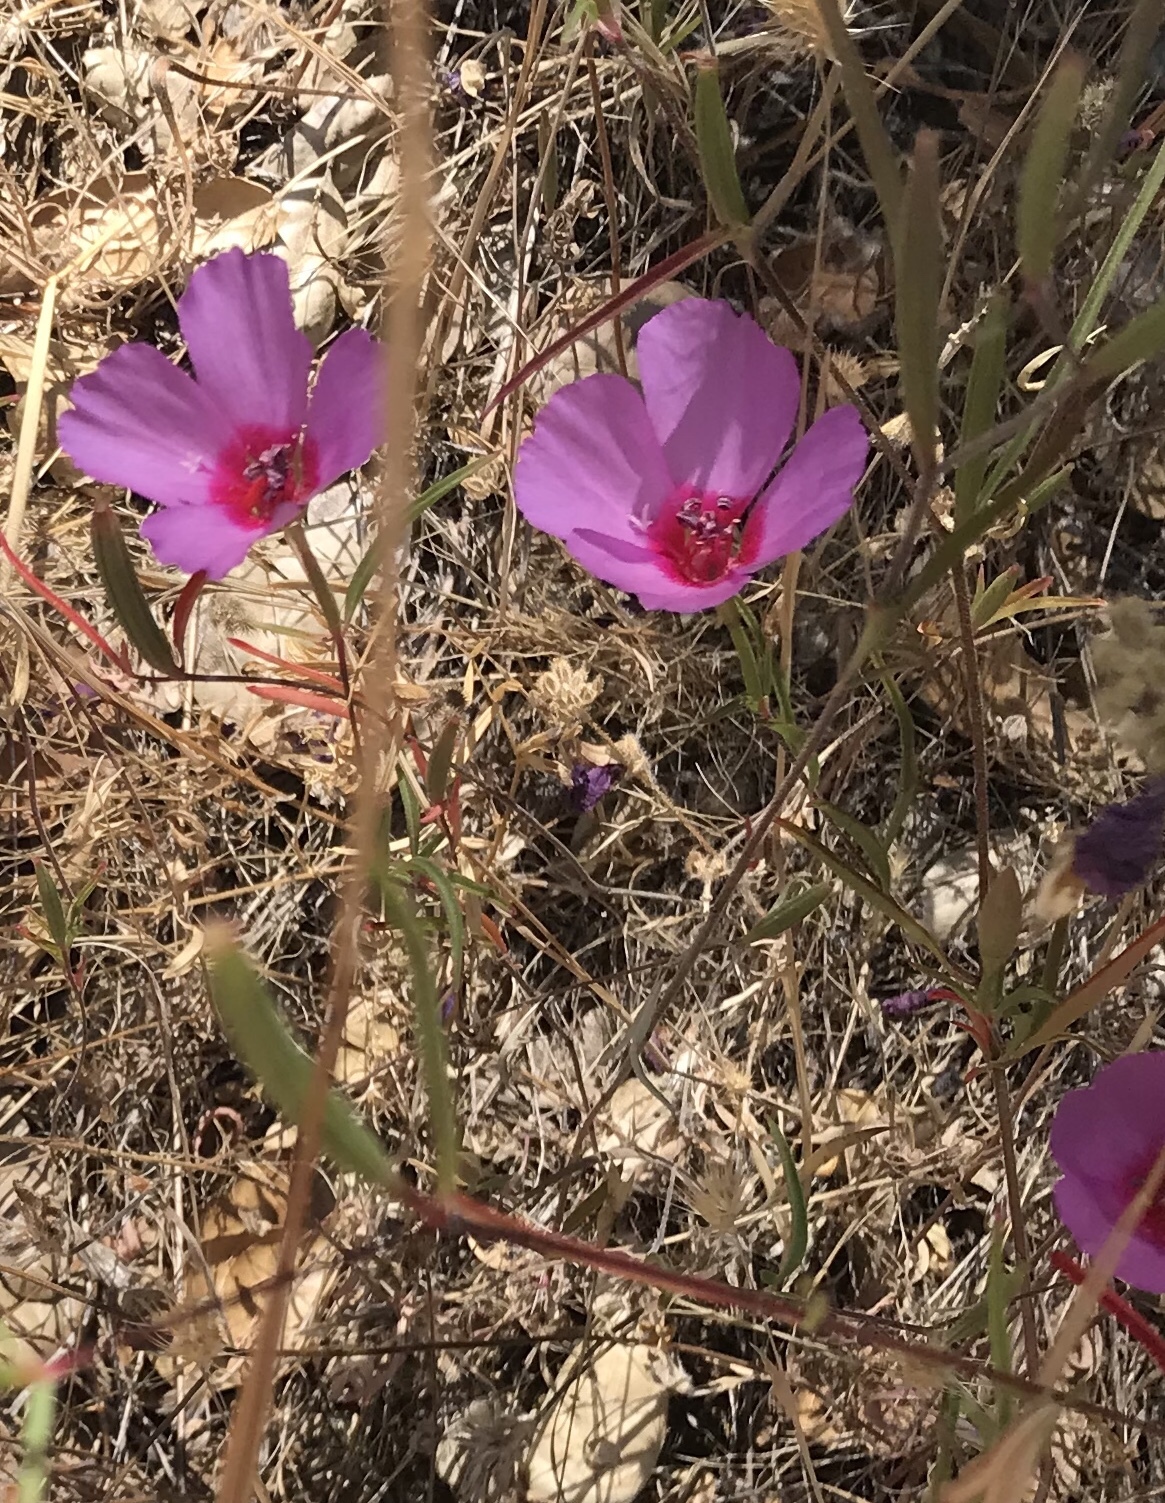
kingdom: Plantae
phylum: Tracheophyta
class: Magnoliopsida
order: Myrtales
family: Onagraceae
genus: Clarkia
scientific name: Clarkia rubicunda
